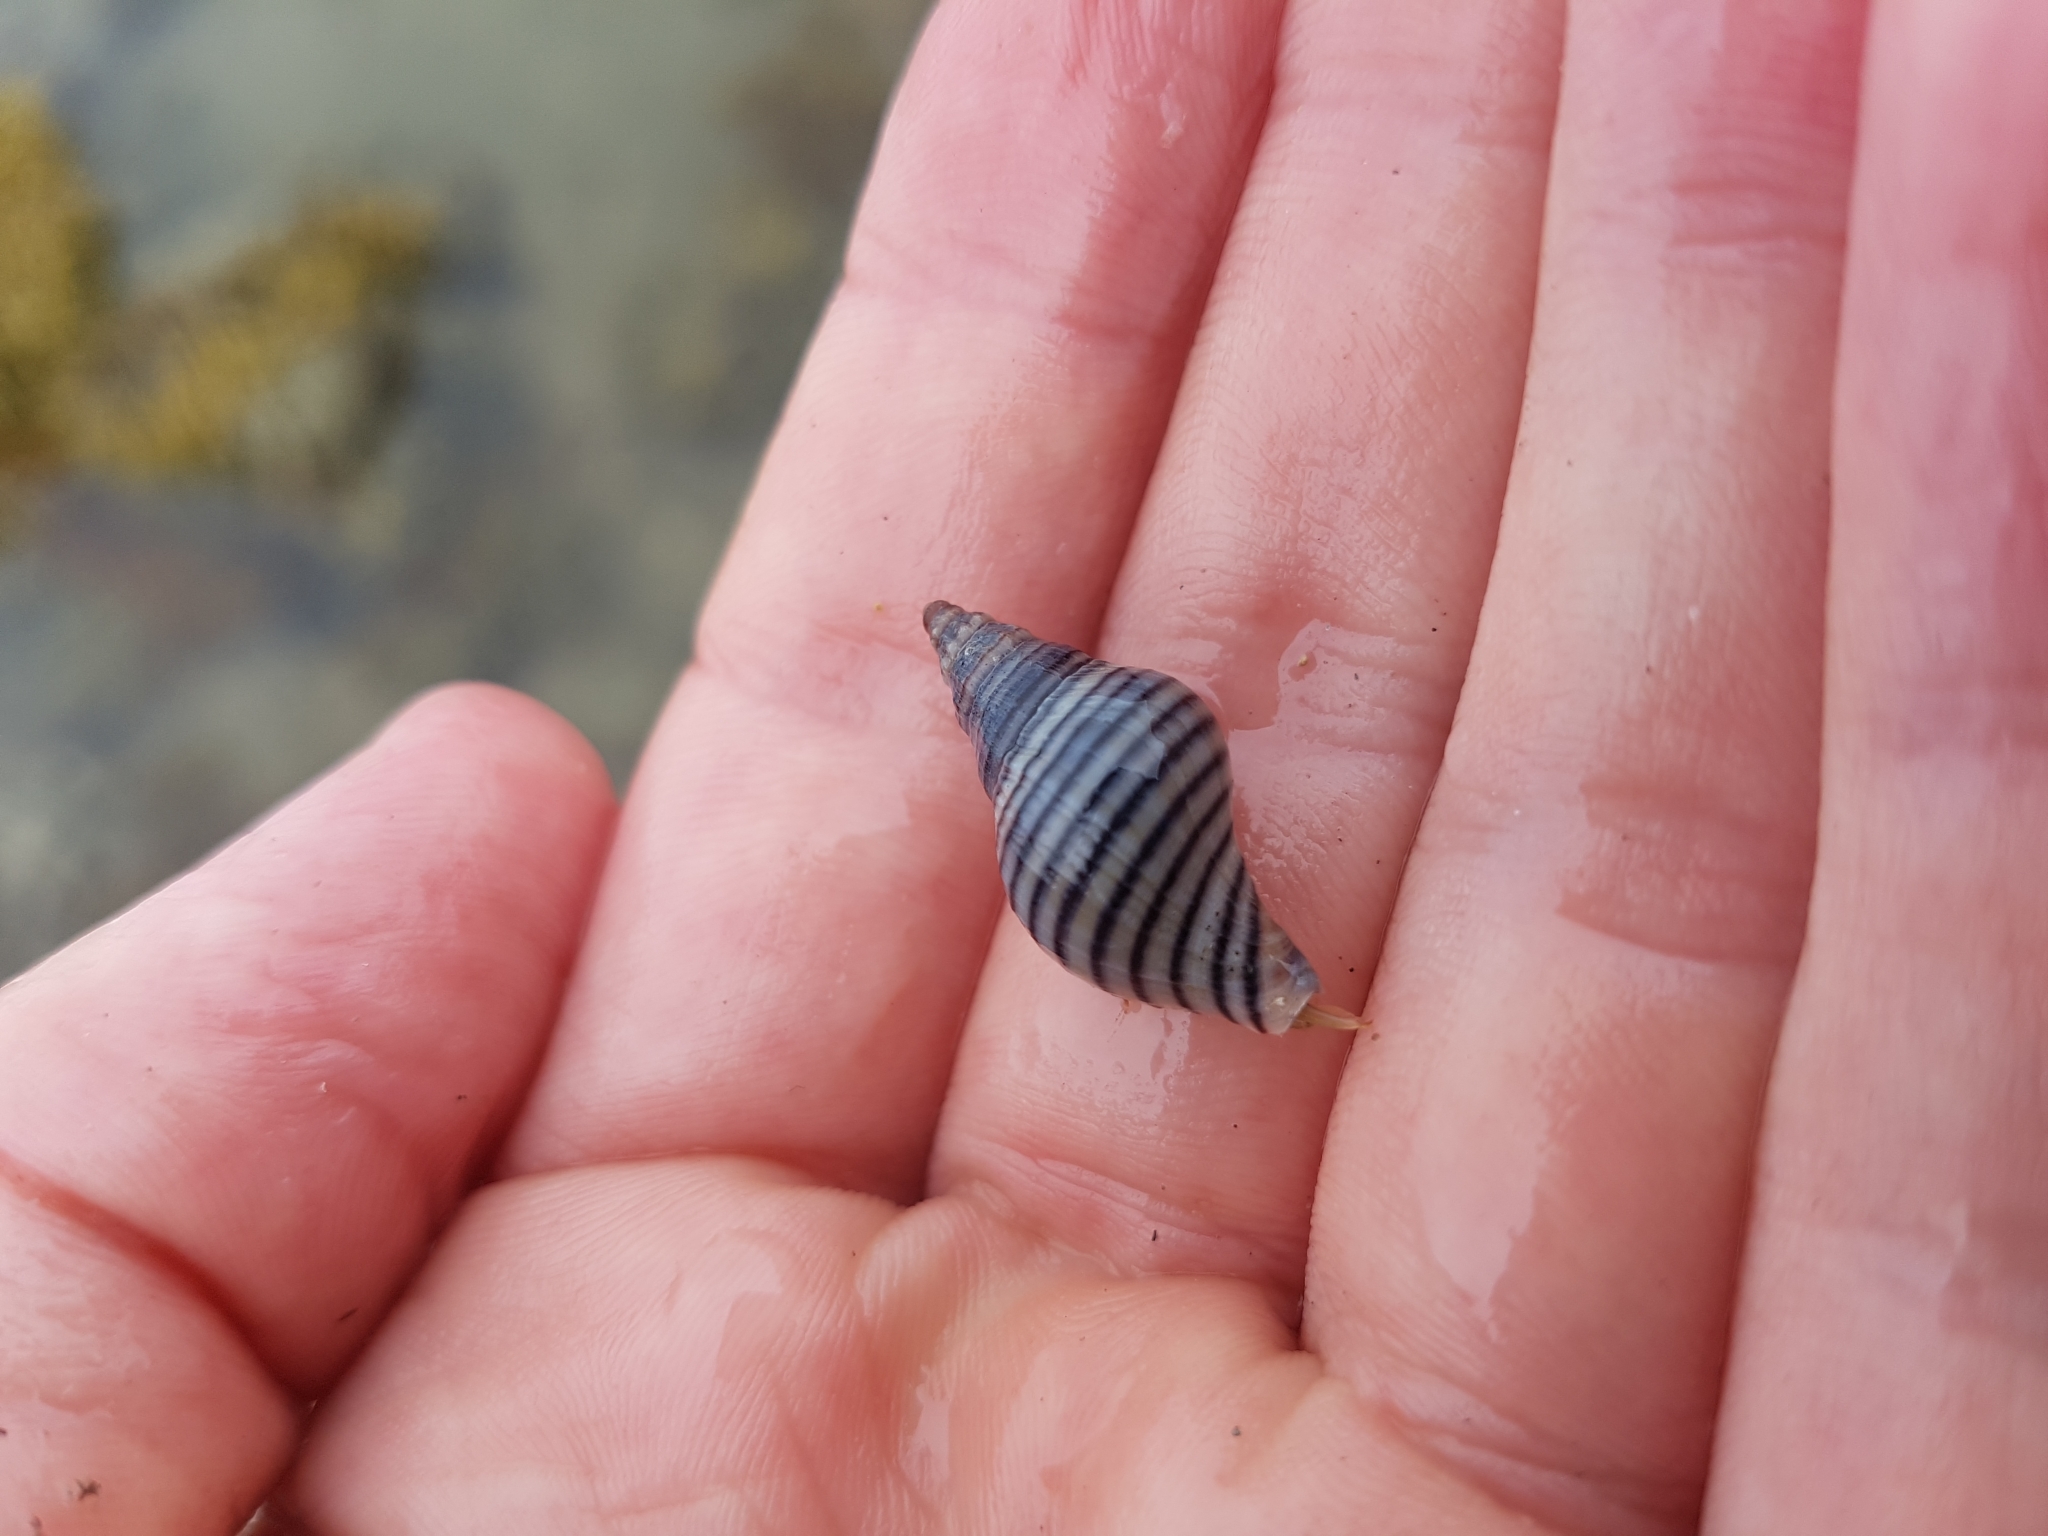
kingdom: Animalia
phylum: Mollusca
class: Gastropoda
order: Neogastropoda
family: Tudiclidae
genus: Buccinulum
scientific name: Buccinulum linea
